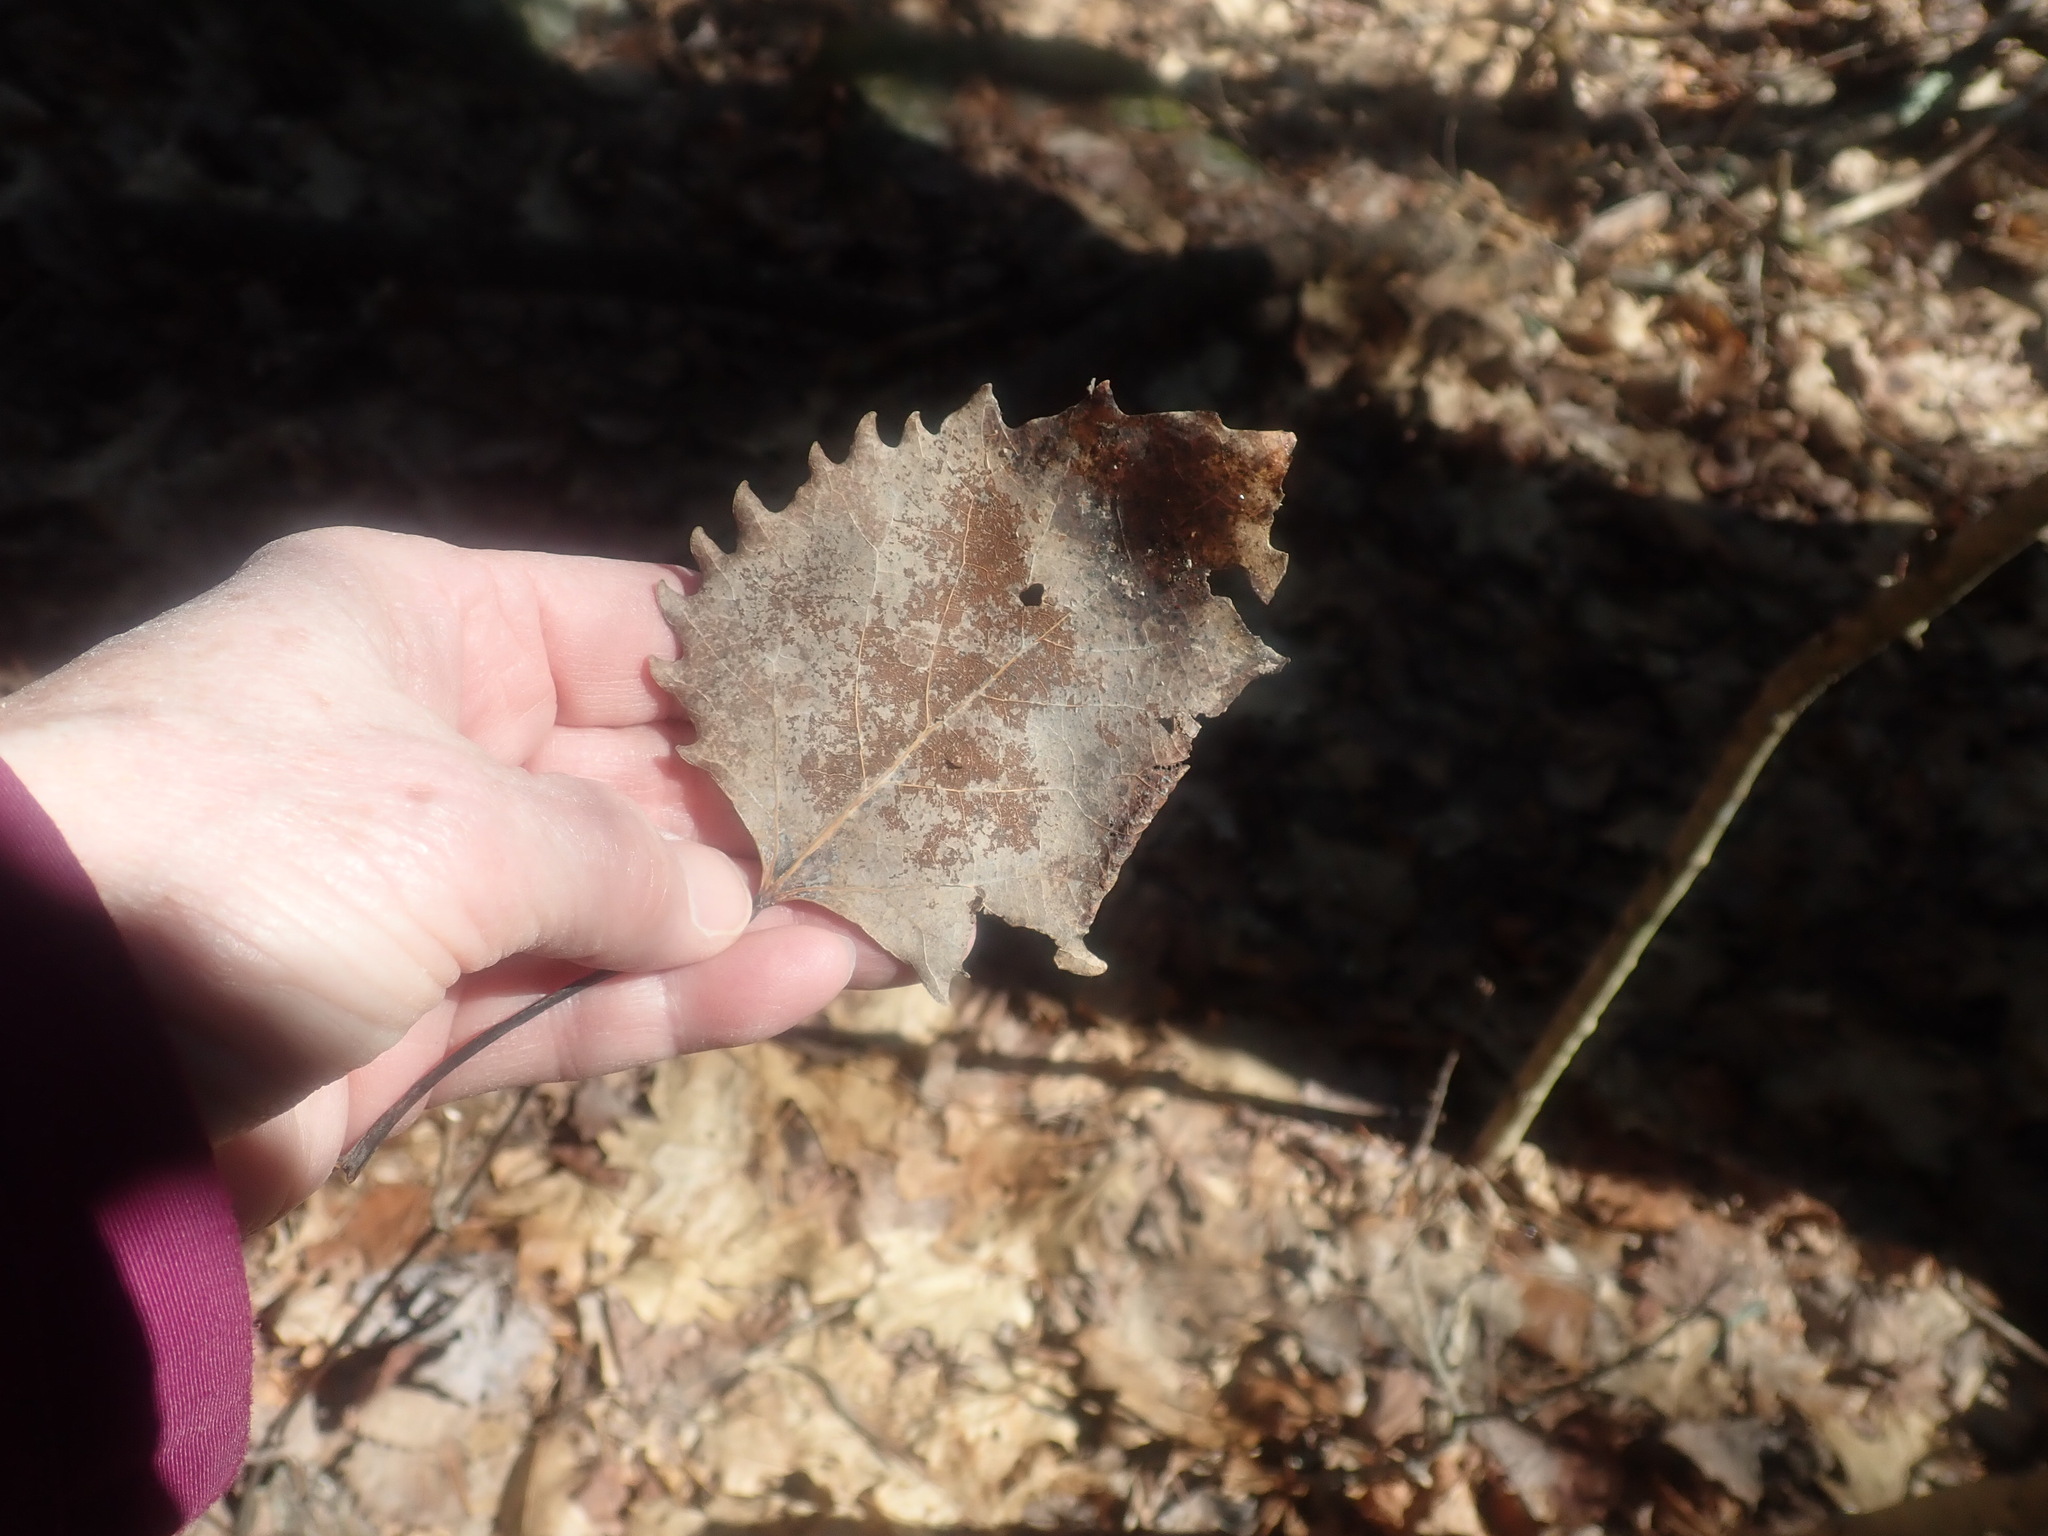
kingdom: Plantae
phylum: Tracheophyta
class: Magnoliopsida
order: Malpighiales
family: Salicaceae
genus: Populus
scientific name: Populus grandidentata
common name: Bigtooth aspen
